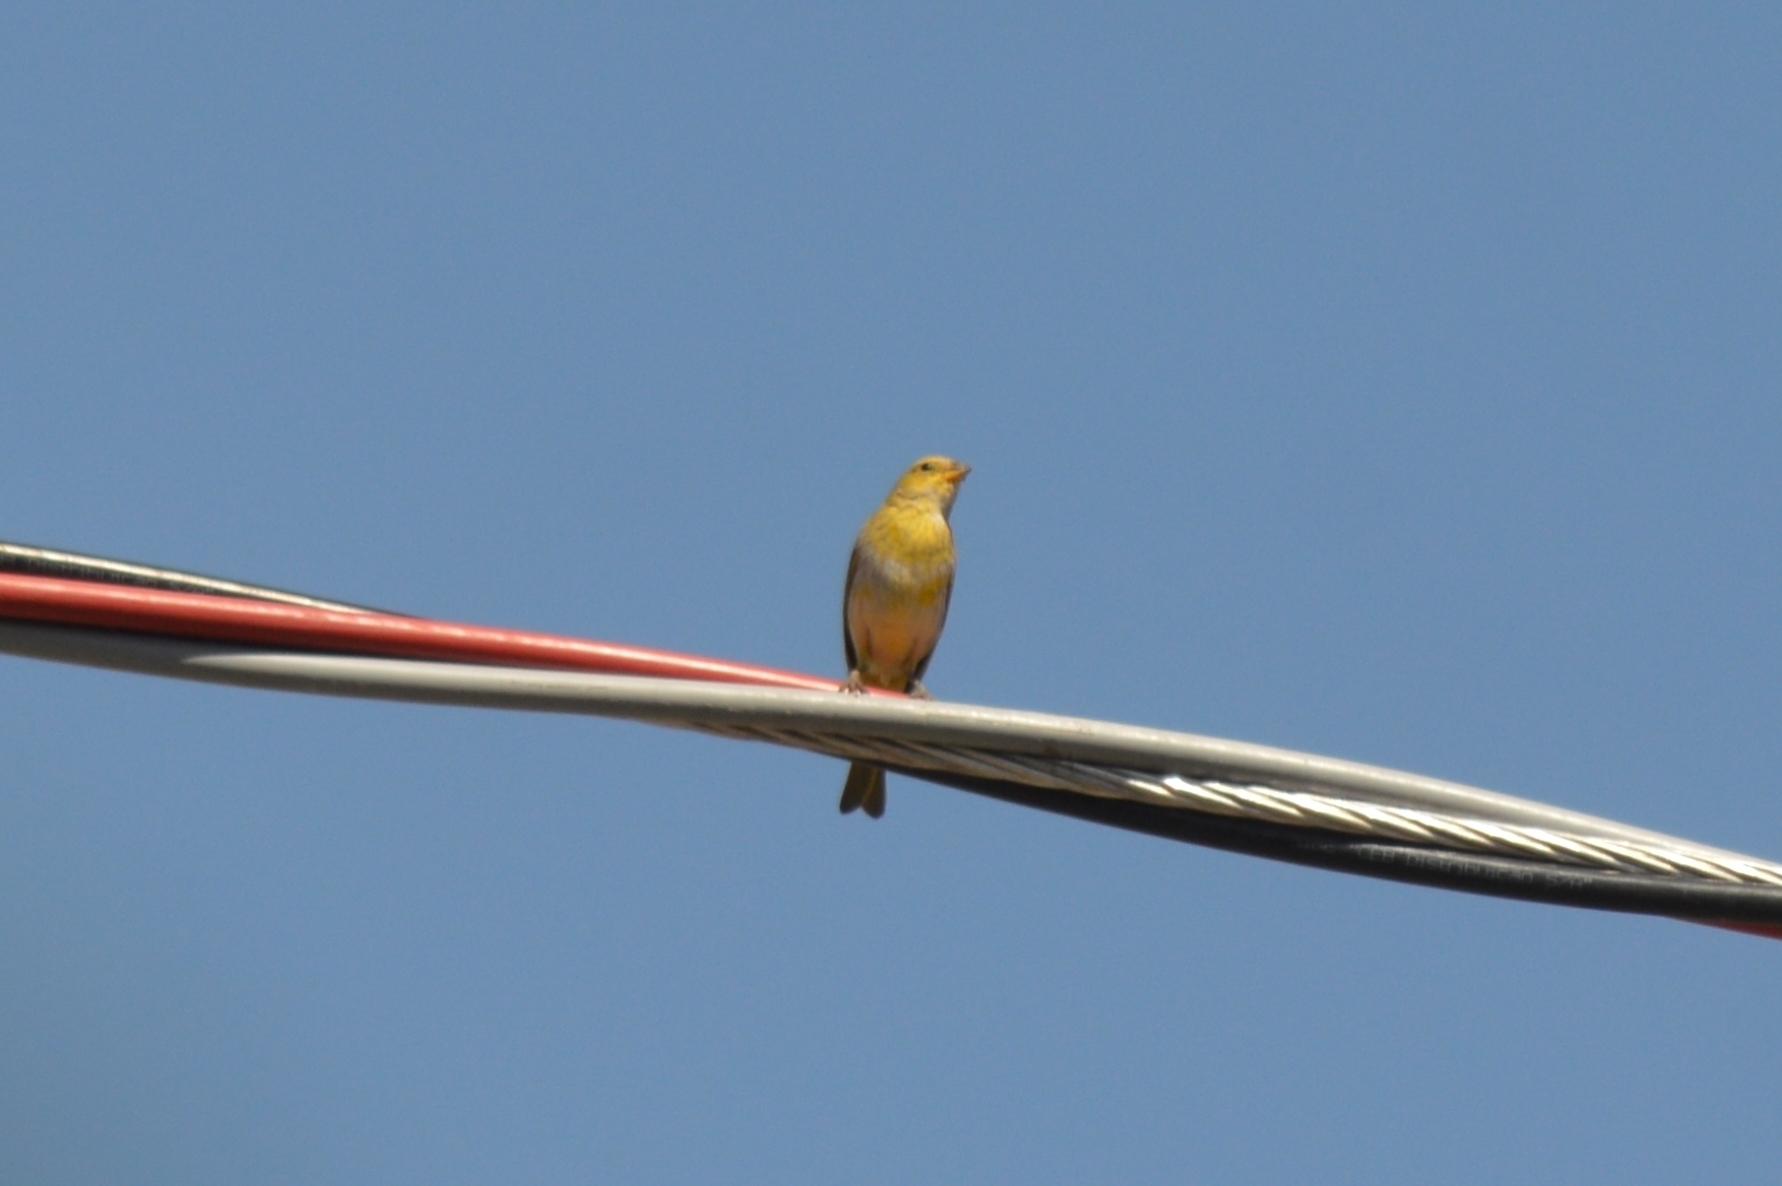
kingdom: Animalia
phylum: Chordata
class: Aves
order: Passeriformes
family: Thraupidae
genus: Sicalis
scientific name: Sicalis flaveola
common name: Saffron finch
